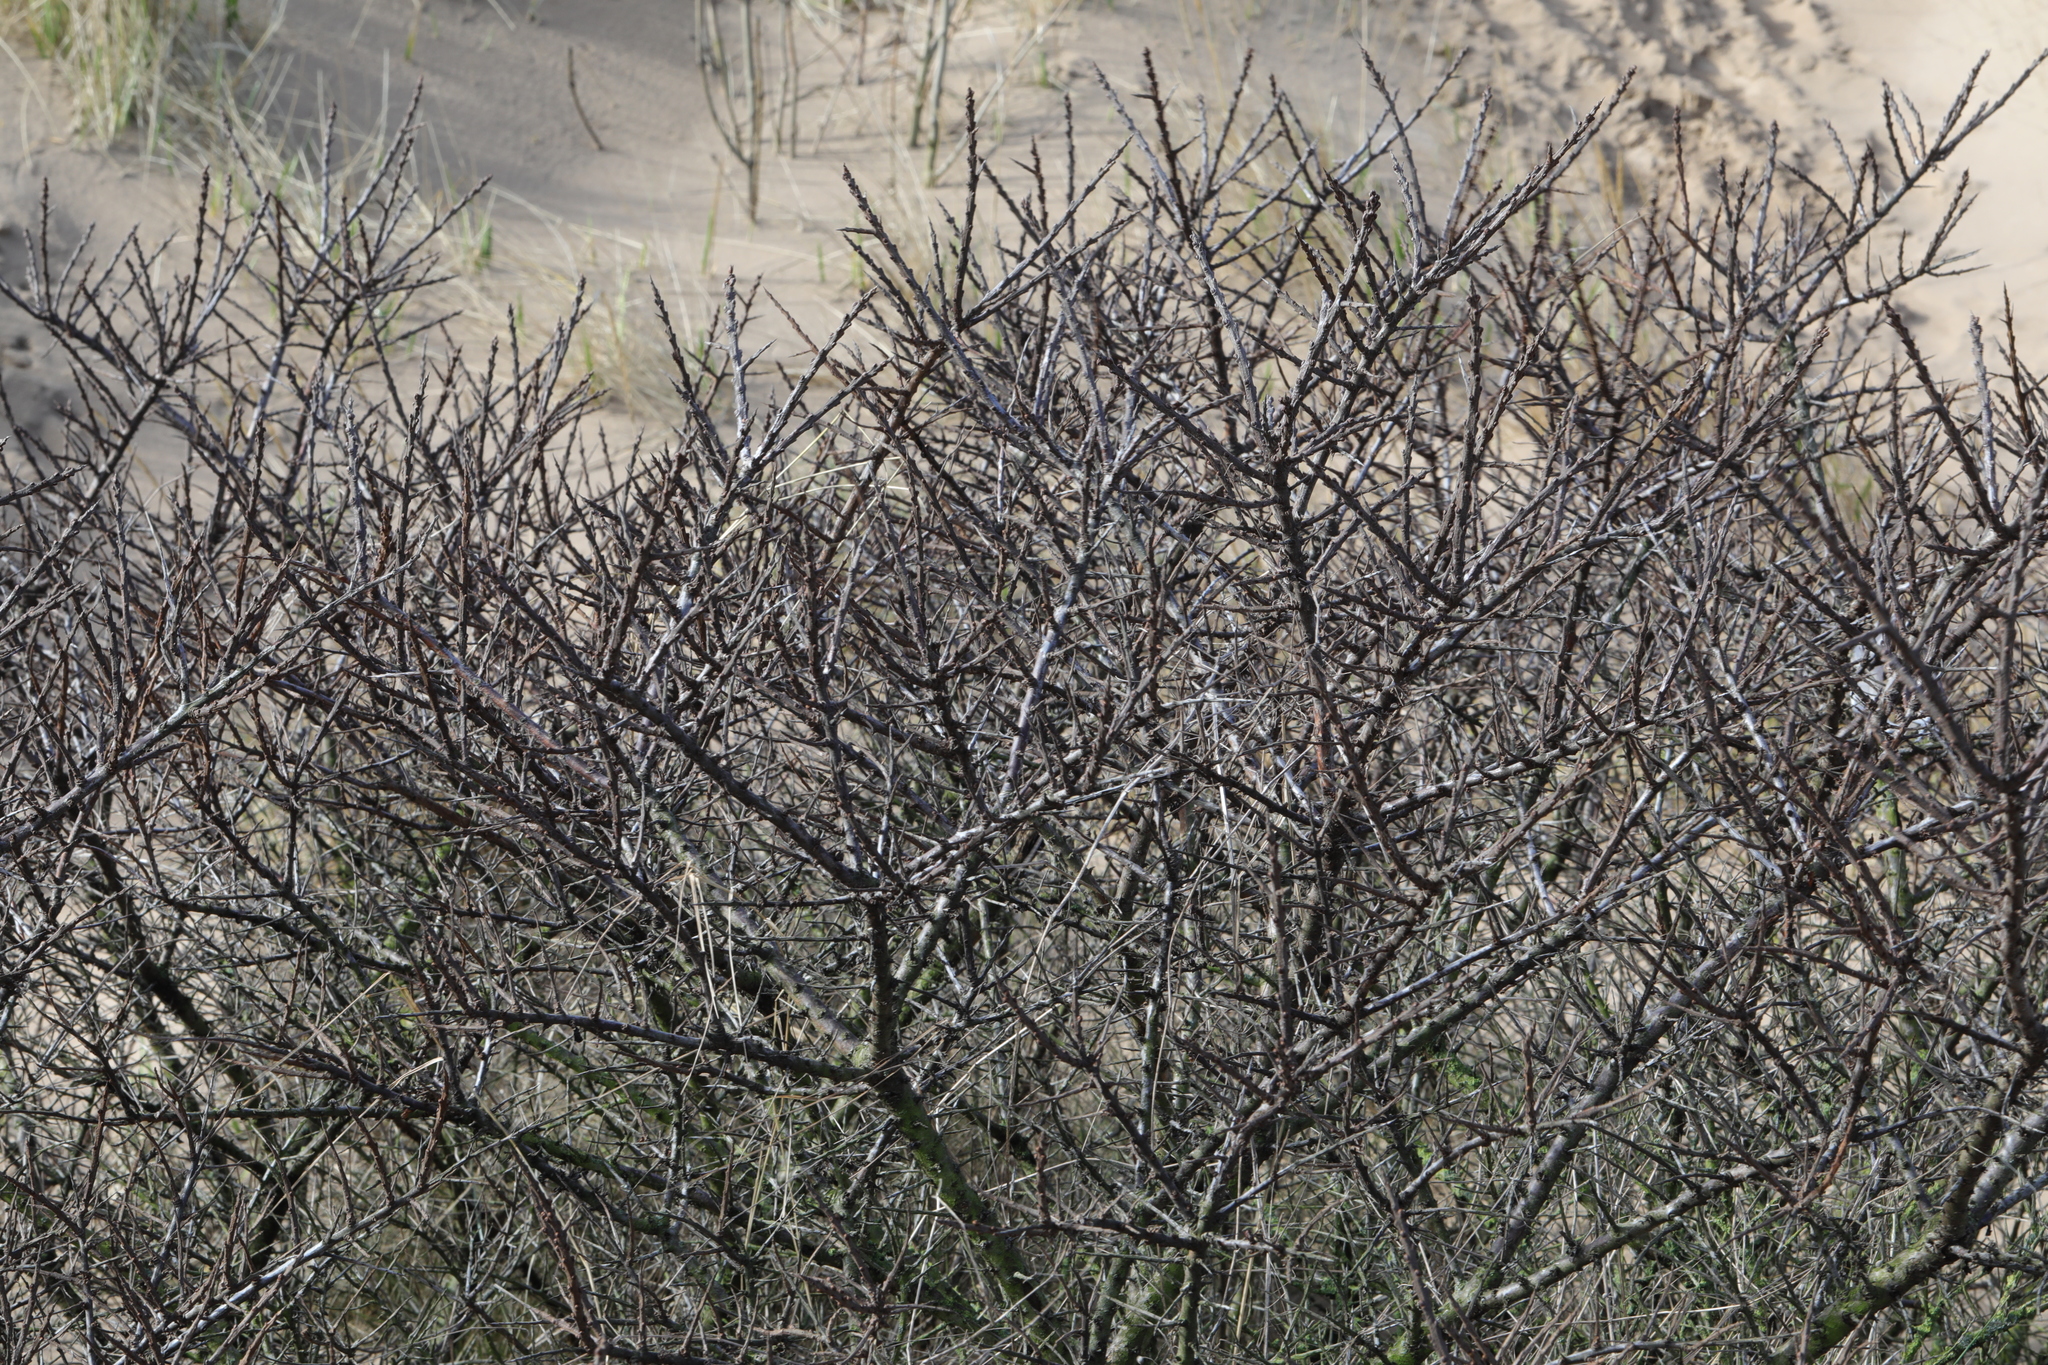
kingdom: Plantae
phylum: Tracheophyta
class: Magnoliopsida
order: Rosales
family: Elaeagnaceae
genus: Hippophae
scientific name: Hippophae rhamnoides
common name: Sea-buckthorn
